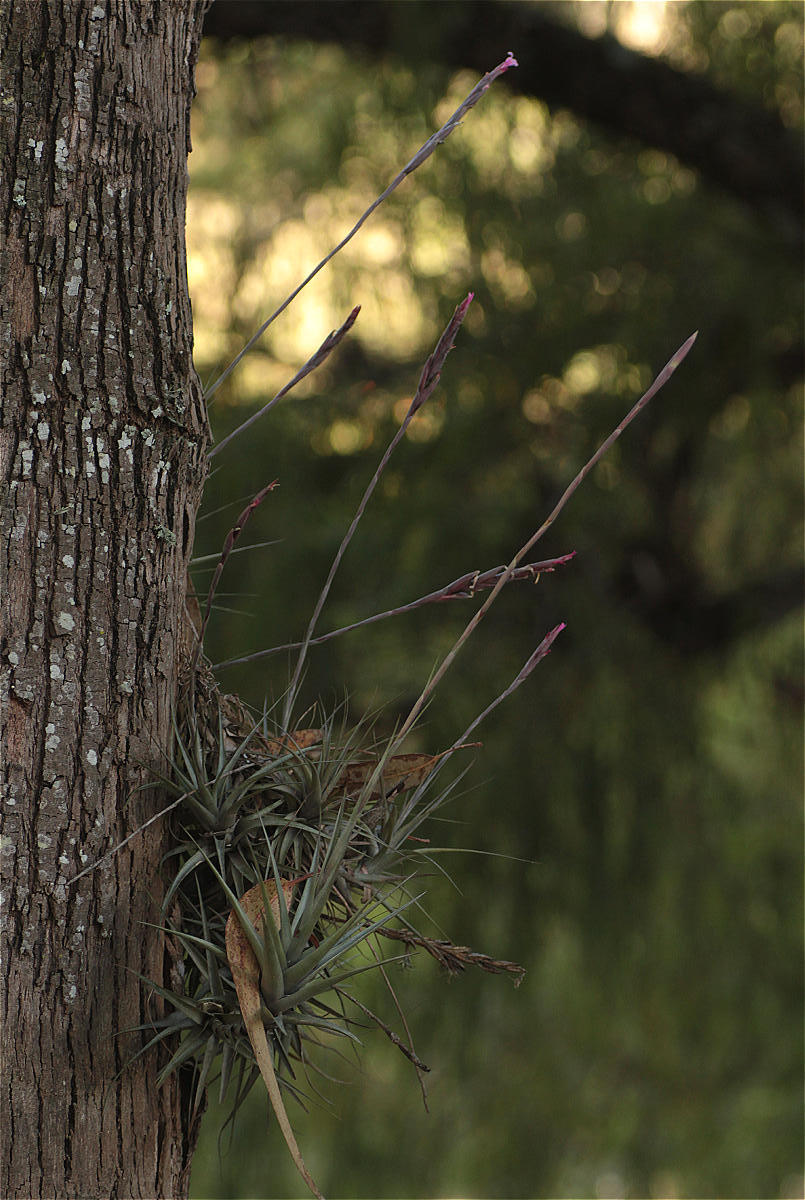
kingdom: Plantae
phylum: Tracheophyta
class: Liliopsida
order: Poales
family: Bromeliaceae
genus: Tillandsia
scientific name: Tillandsia incarnata
